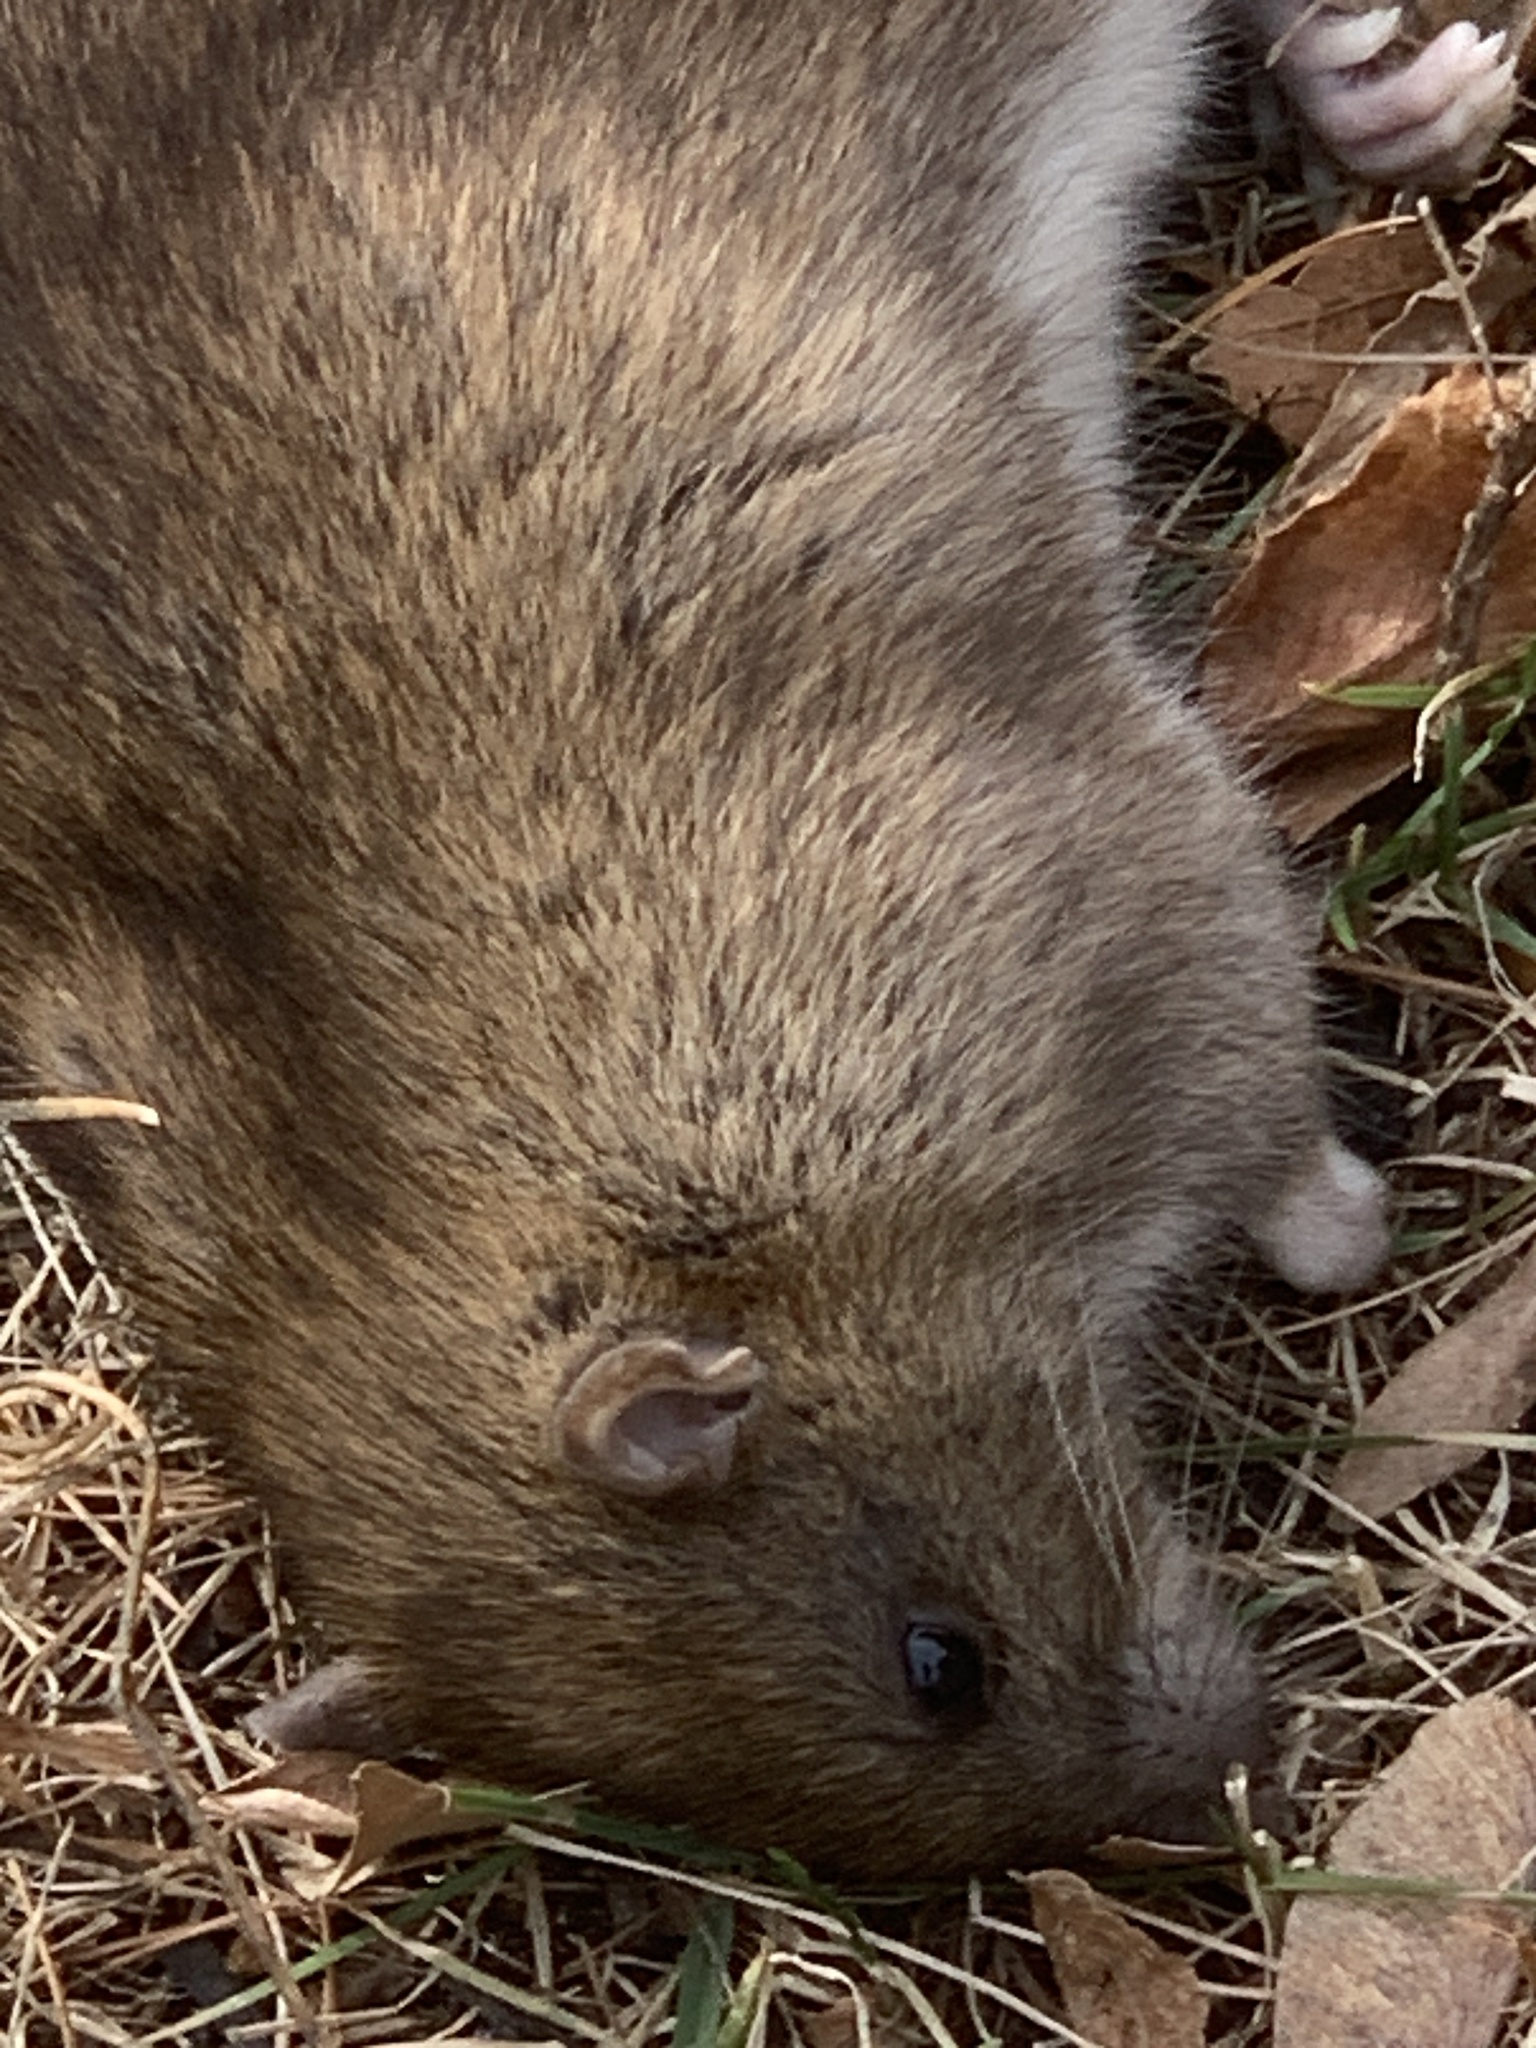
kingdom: Animalia
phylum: Chordata
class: Mammalia
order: Rodentia
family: Muridae
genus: Rattus
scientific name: Rattus norvegicus
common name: Brown rat
